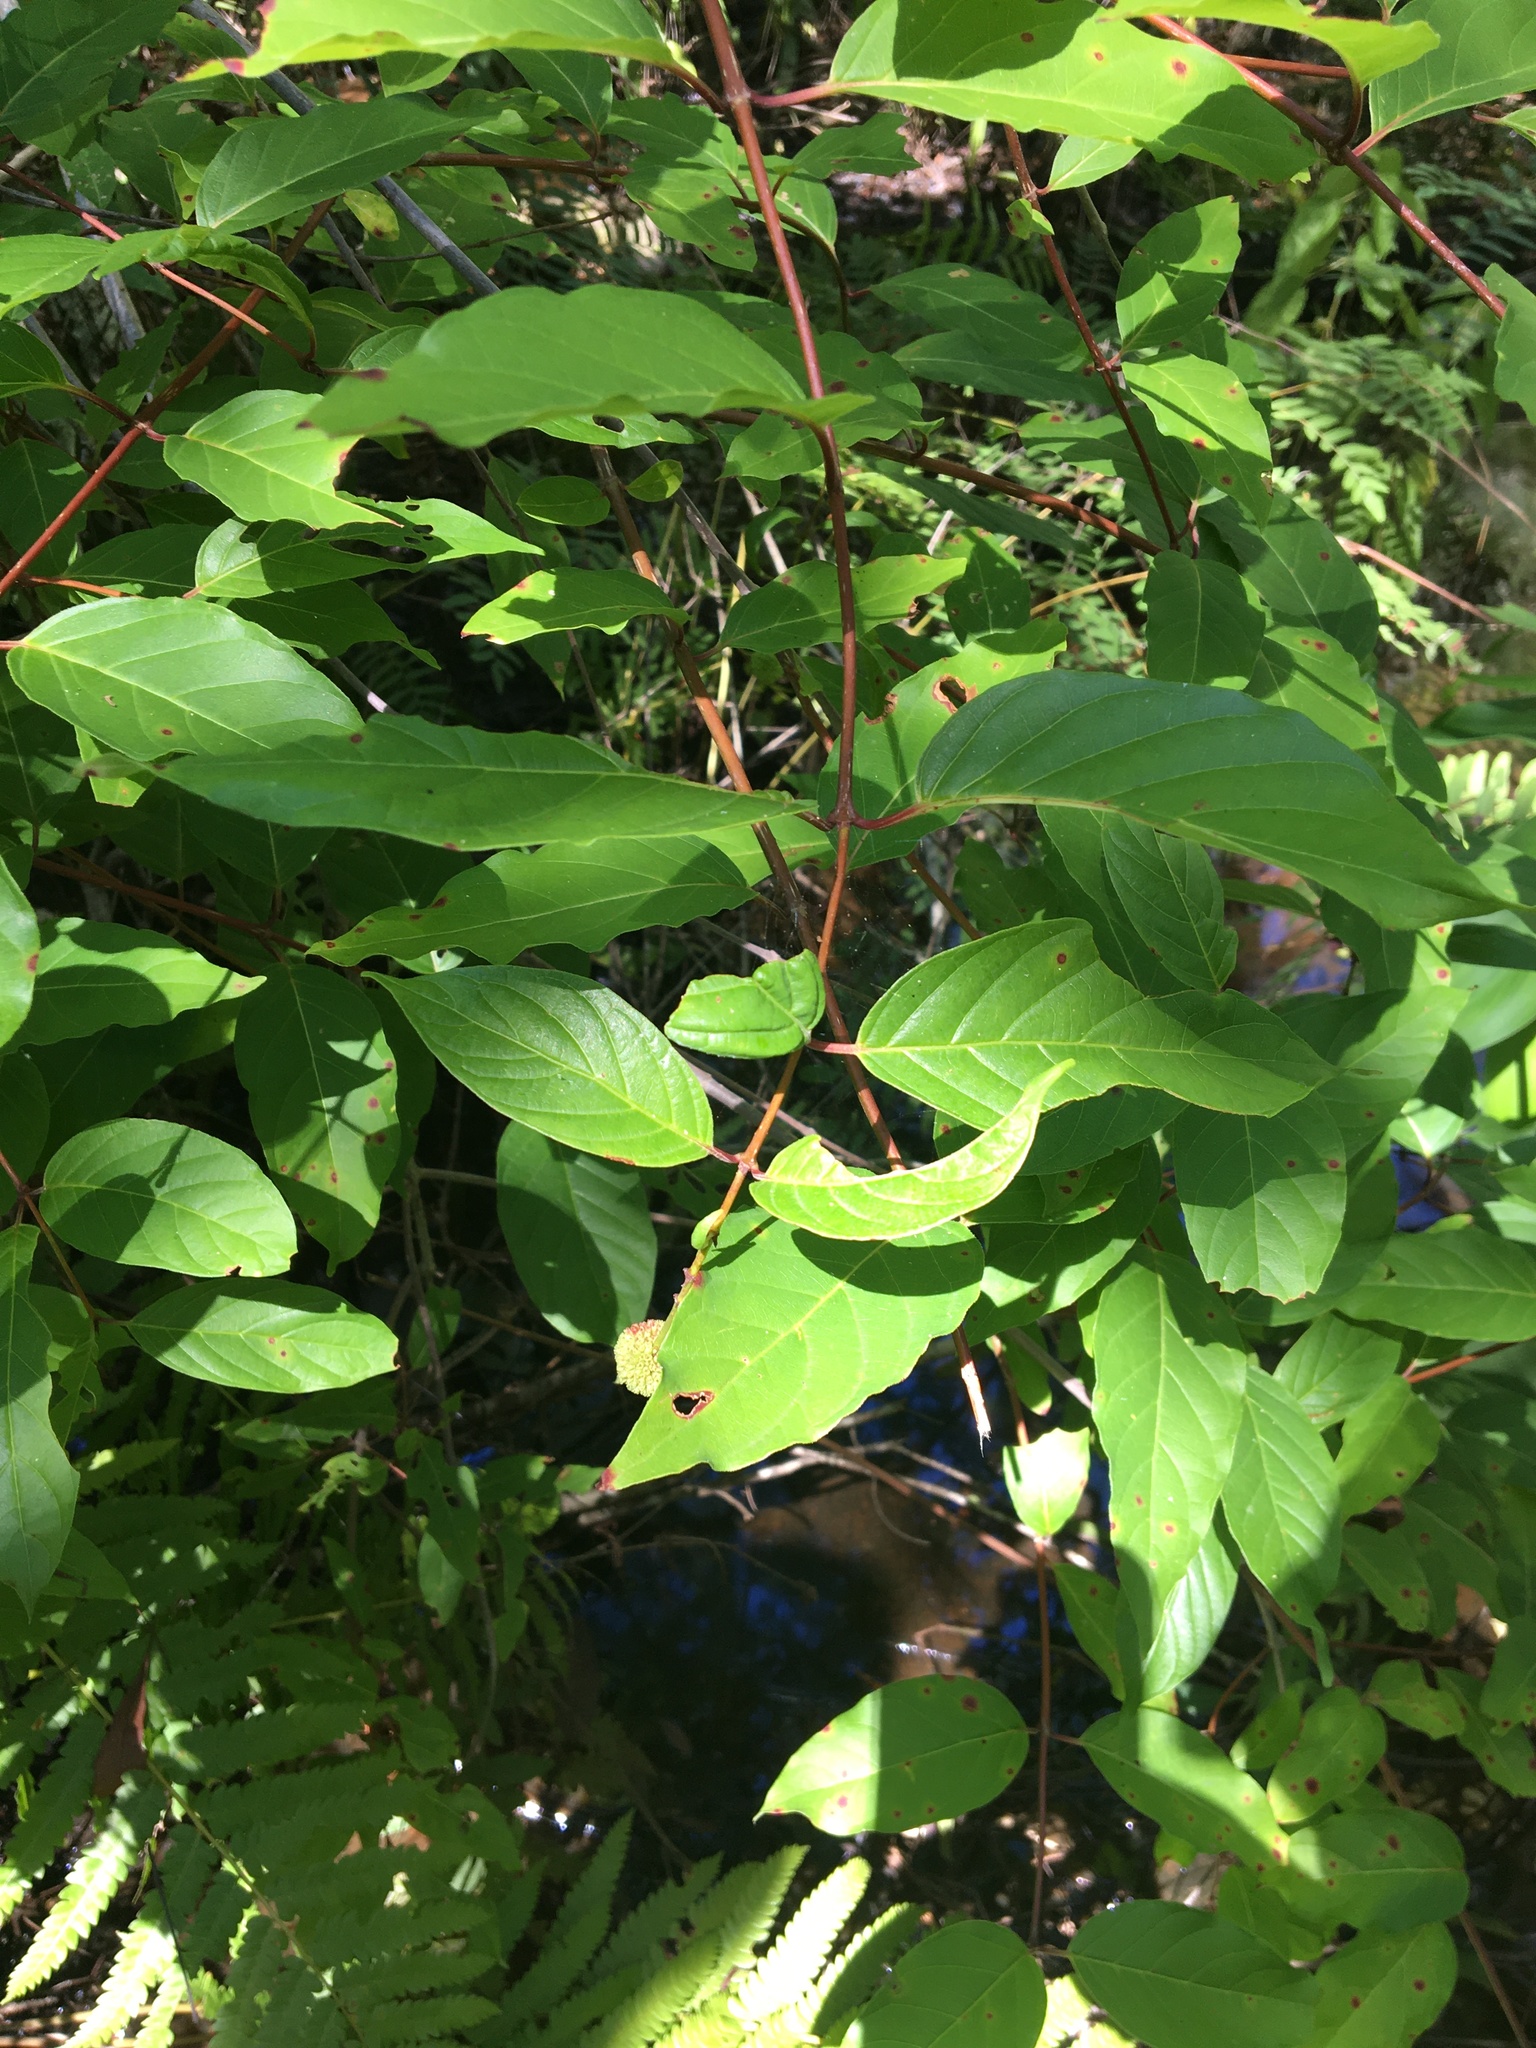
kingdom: Plantae
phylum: Tracheophyta
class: Magnoliopsida
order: Gentianales
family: Rubiaceae
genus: Cephalanthus
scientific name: Cephalanthus occidentalis
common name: Button-willow
